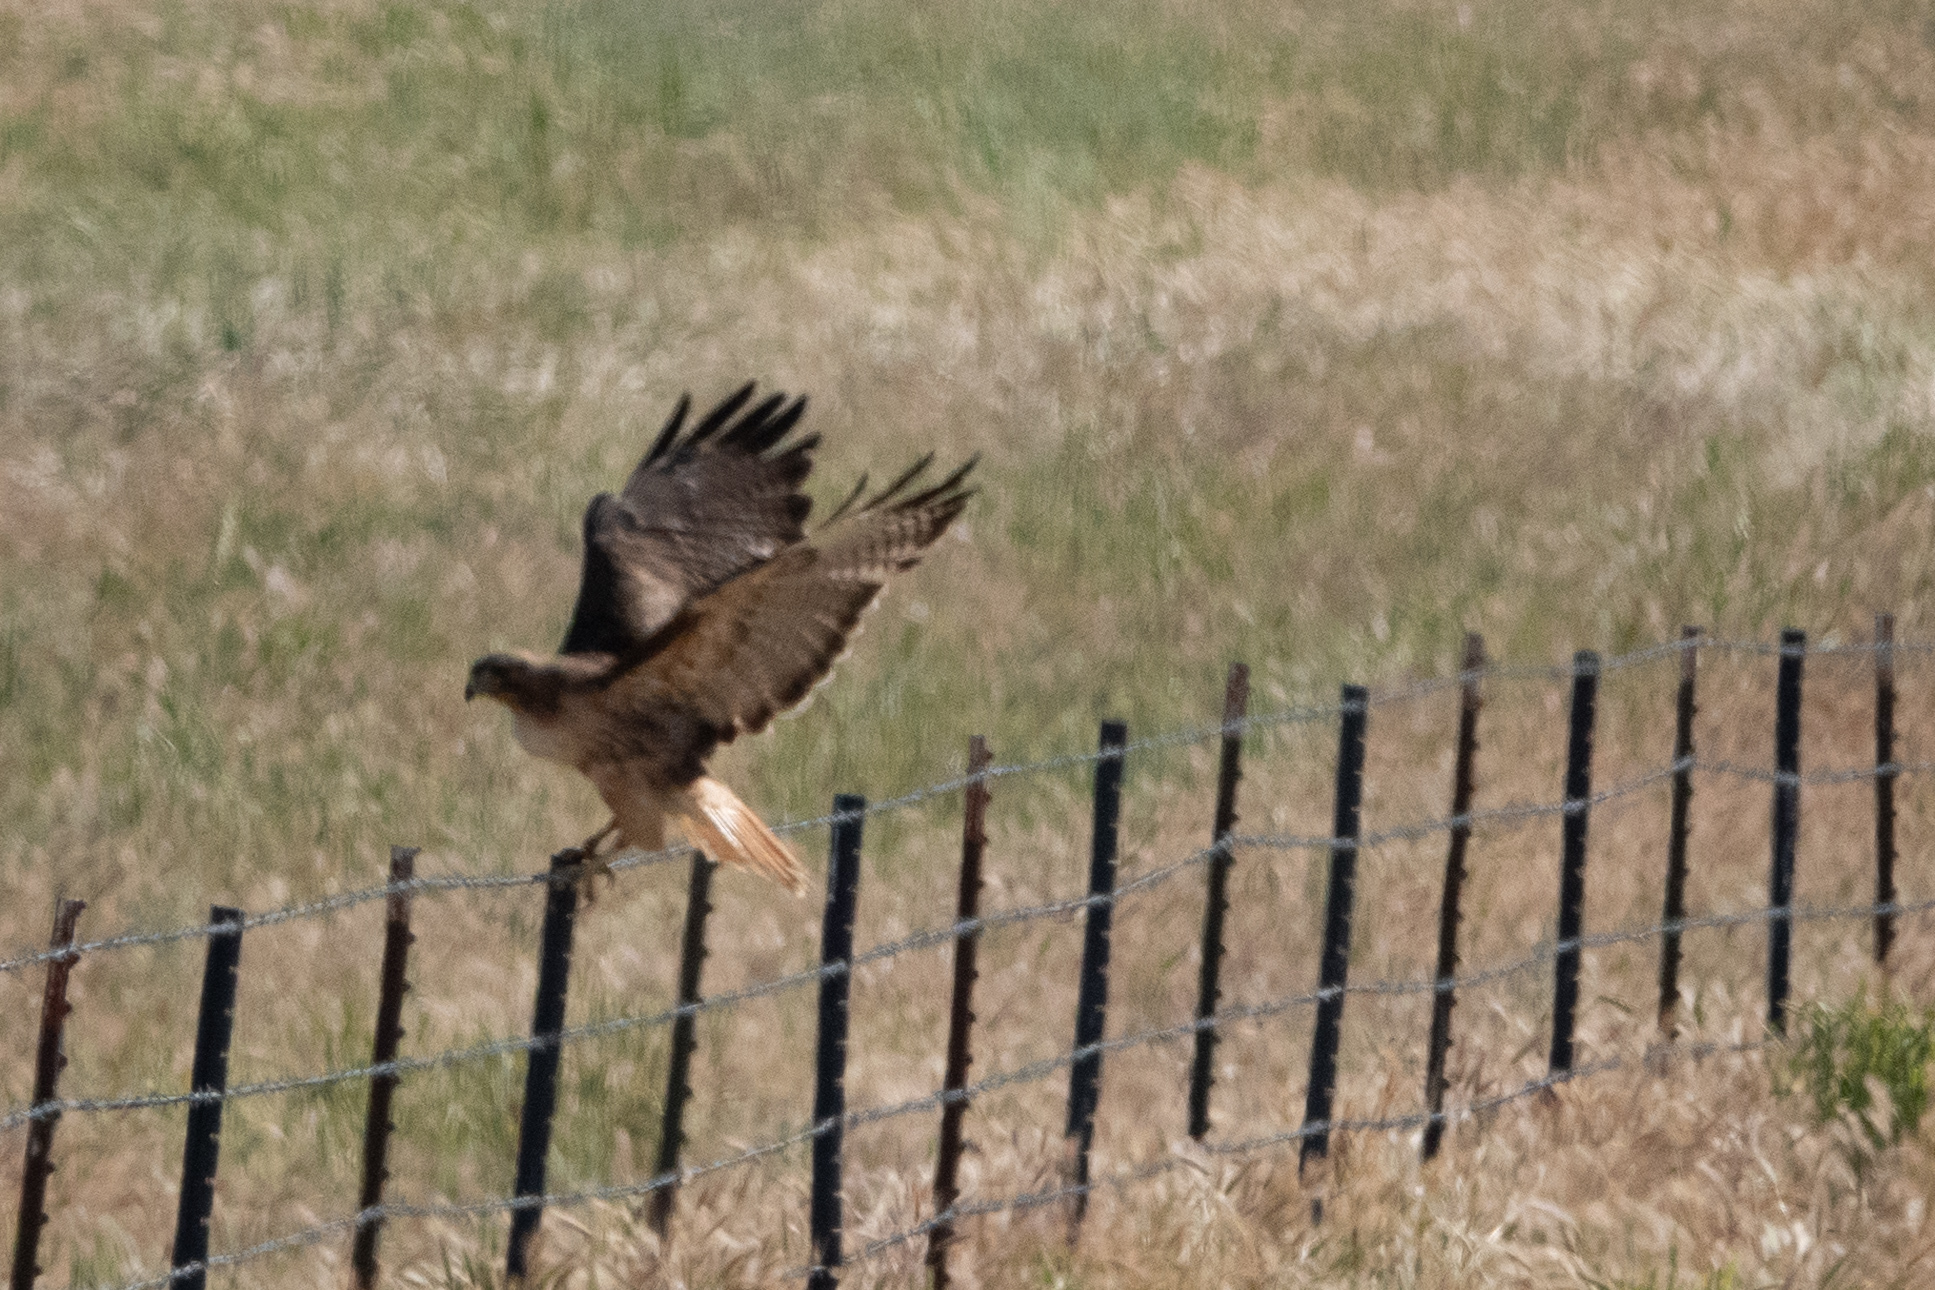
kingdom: Animalia
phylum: Chordata
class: Aves
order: Accipitriformes
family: Accipitridae
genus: Buteo
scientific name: Buteo jamaicensis
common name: Red-tailed hawk
